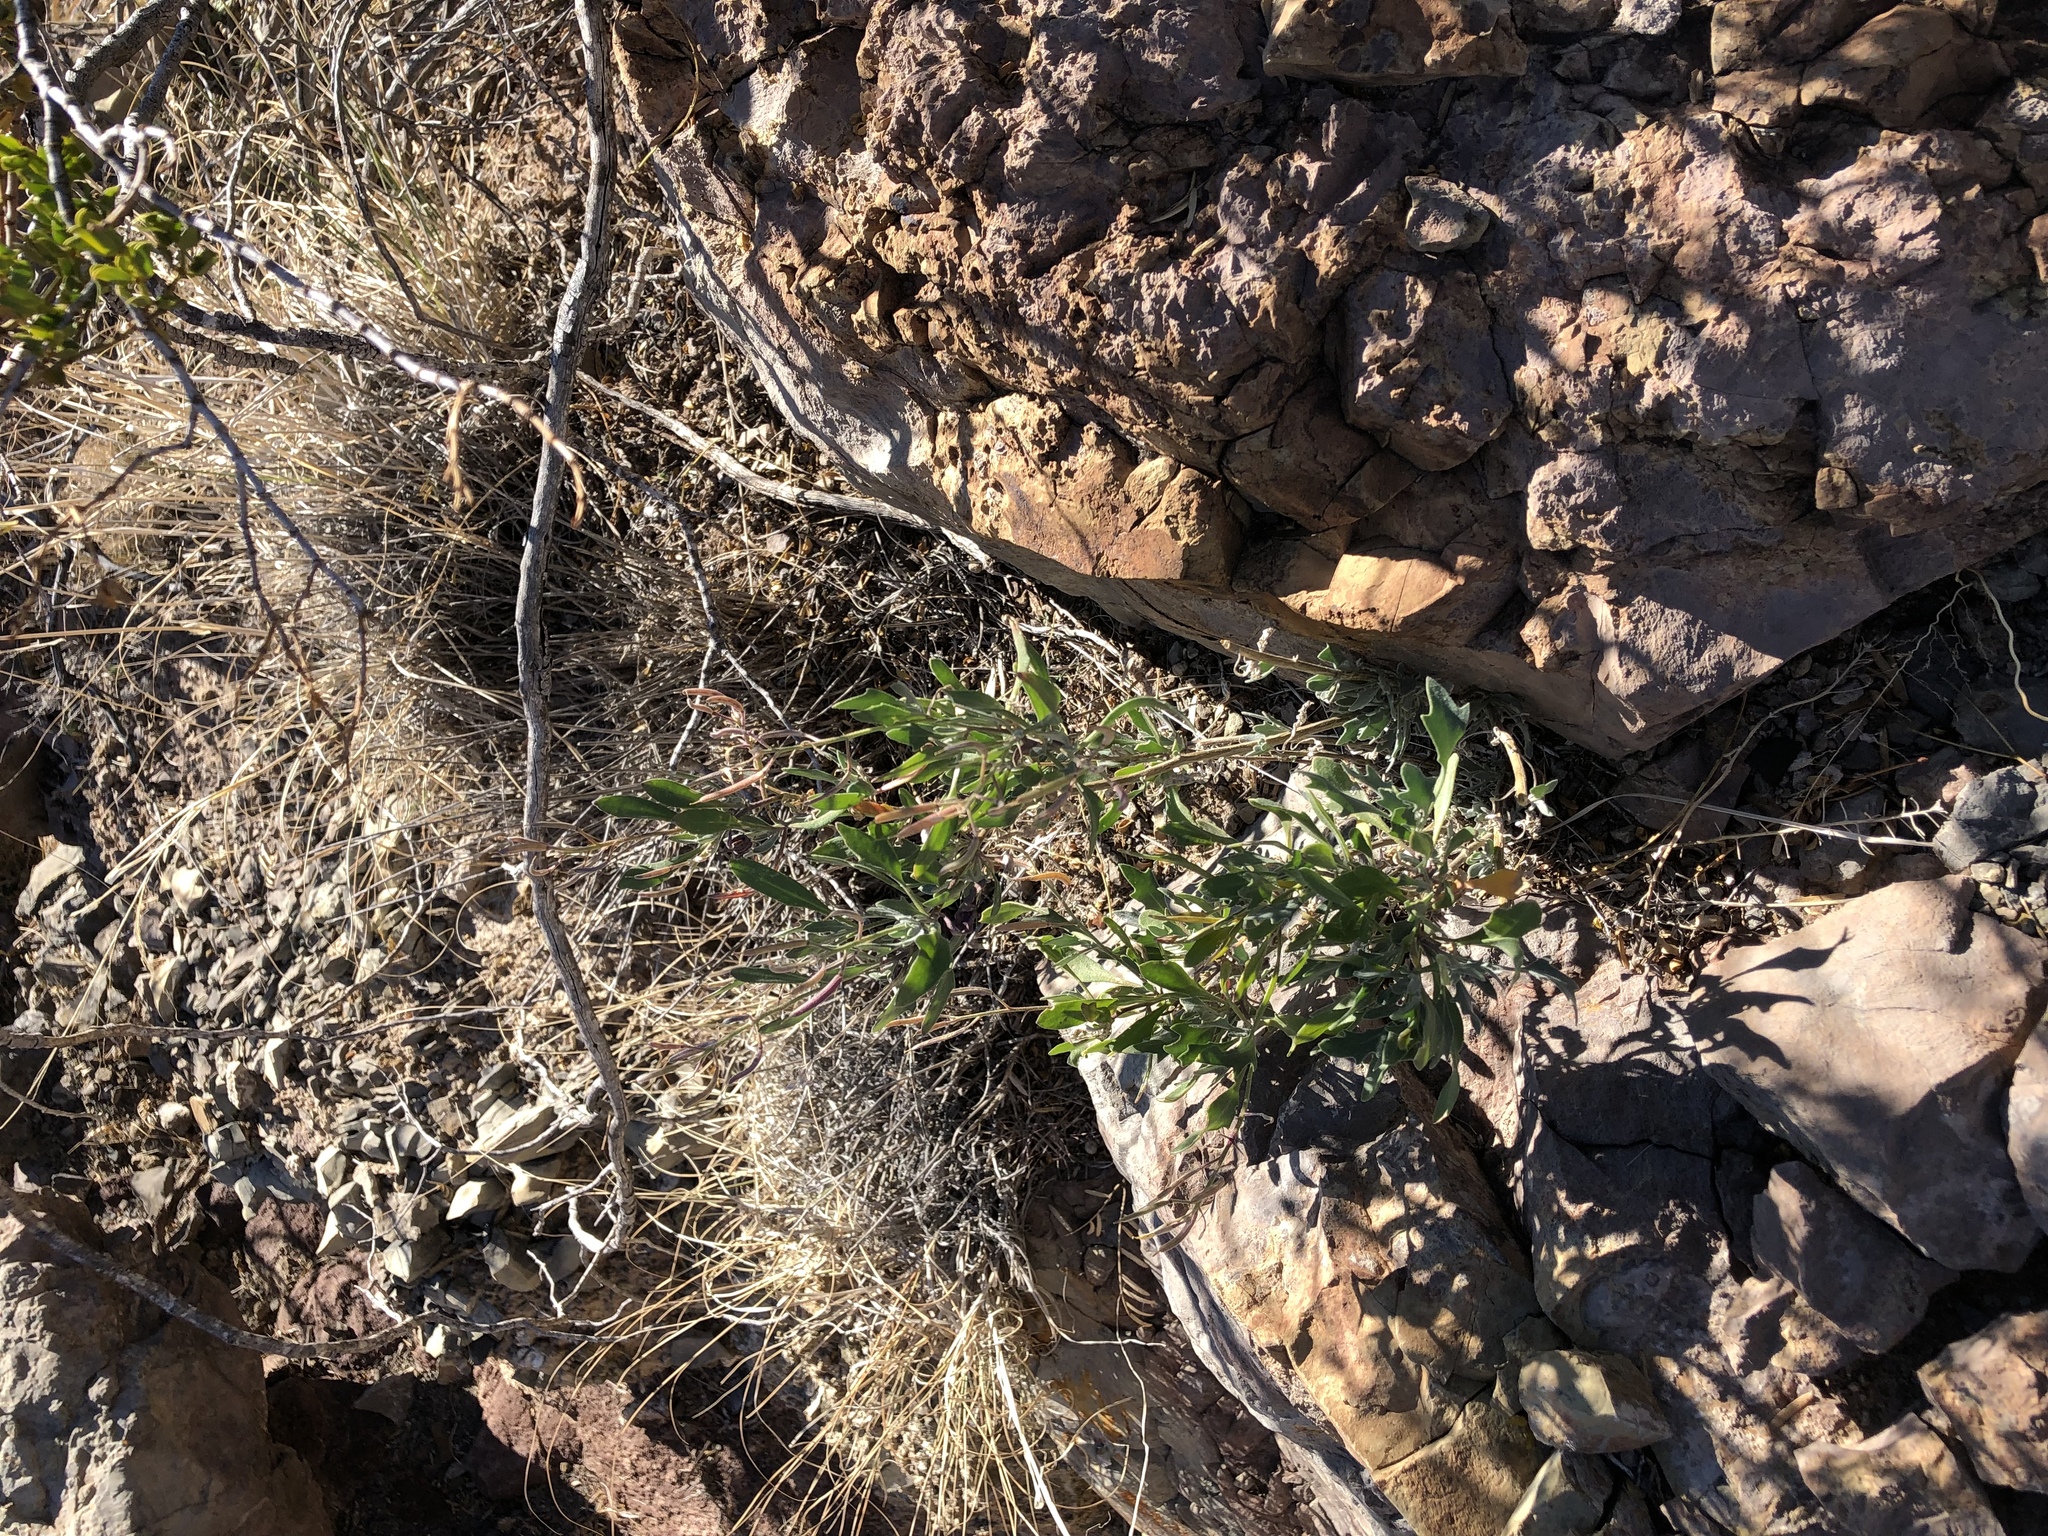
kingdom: Plantae
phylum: Tracheophyta
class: Magnoliopsida
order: Brassicales
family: Brassicaceae
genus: Nerisyrenia
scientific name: Nerisyrenia camporum
